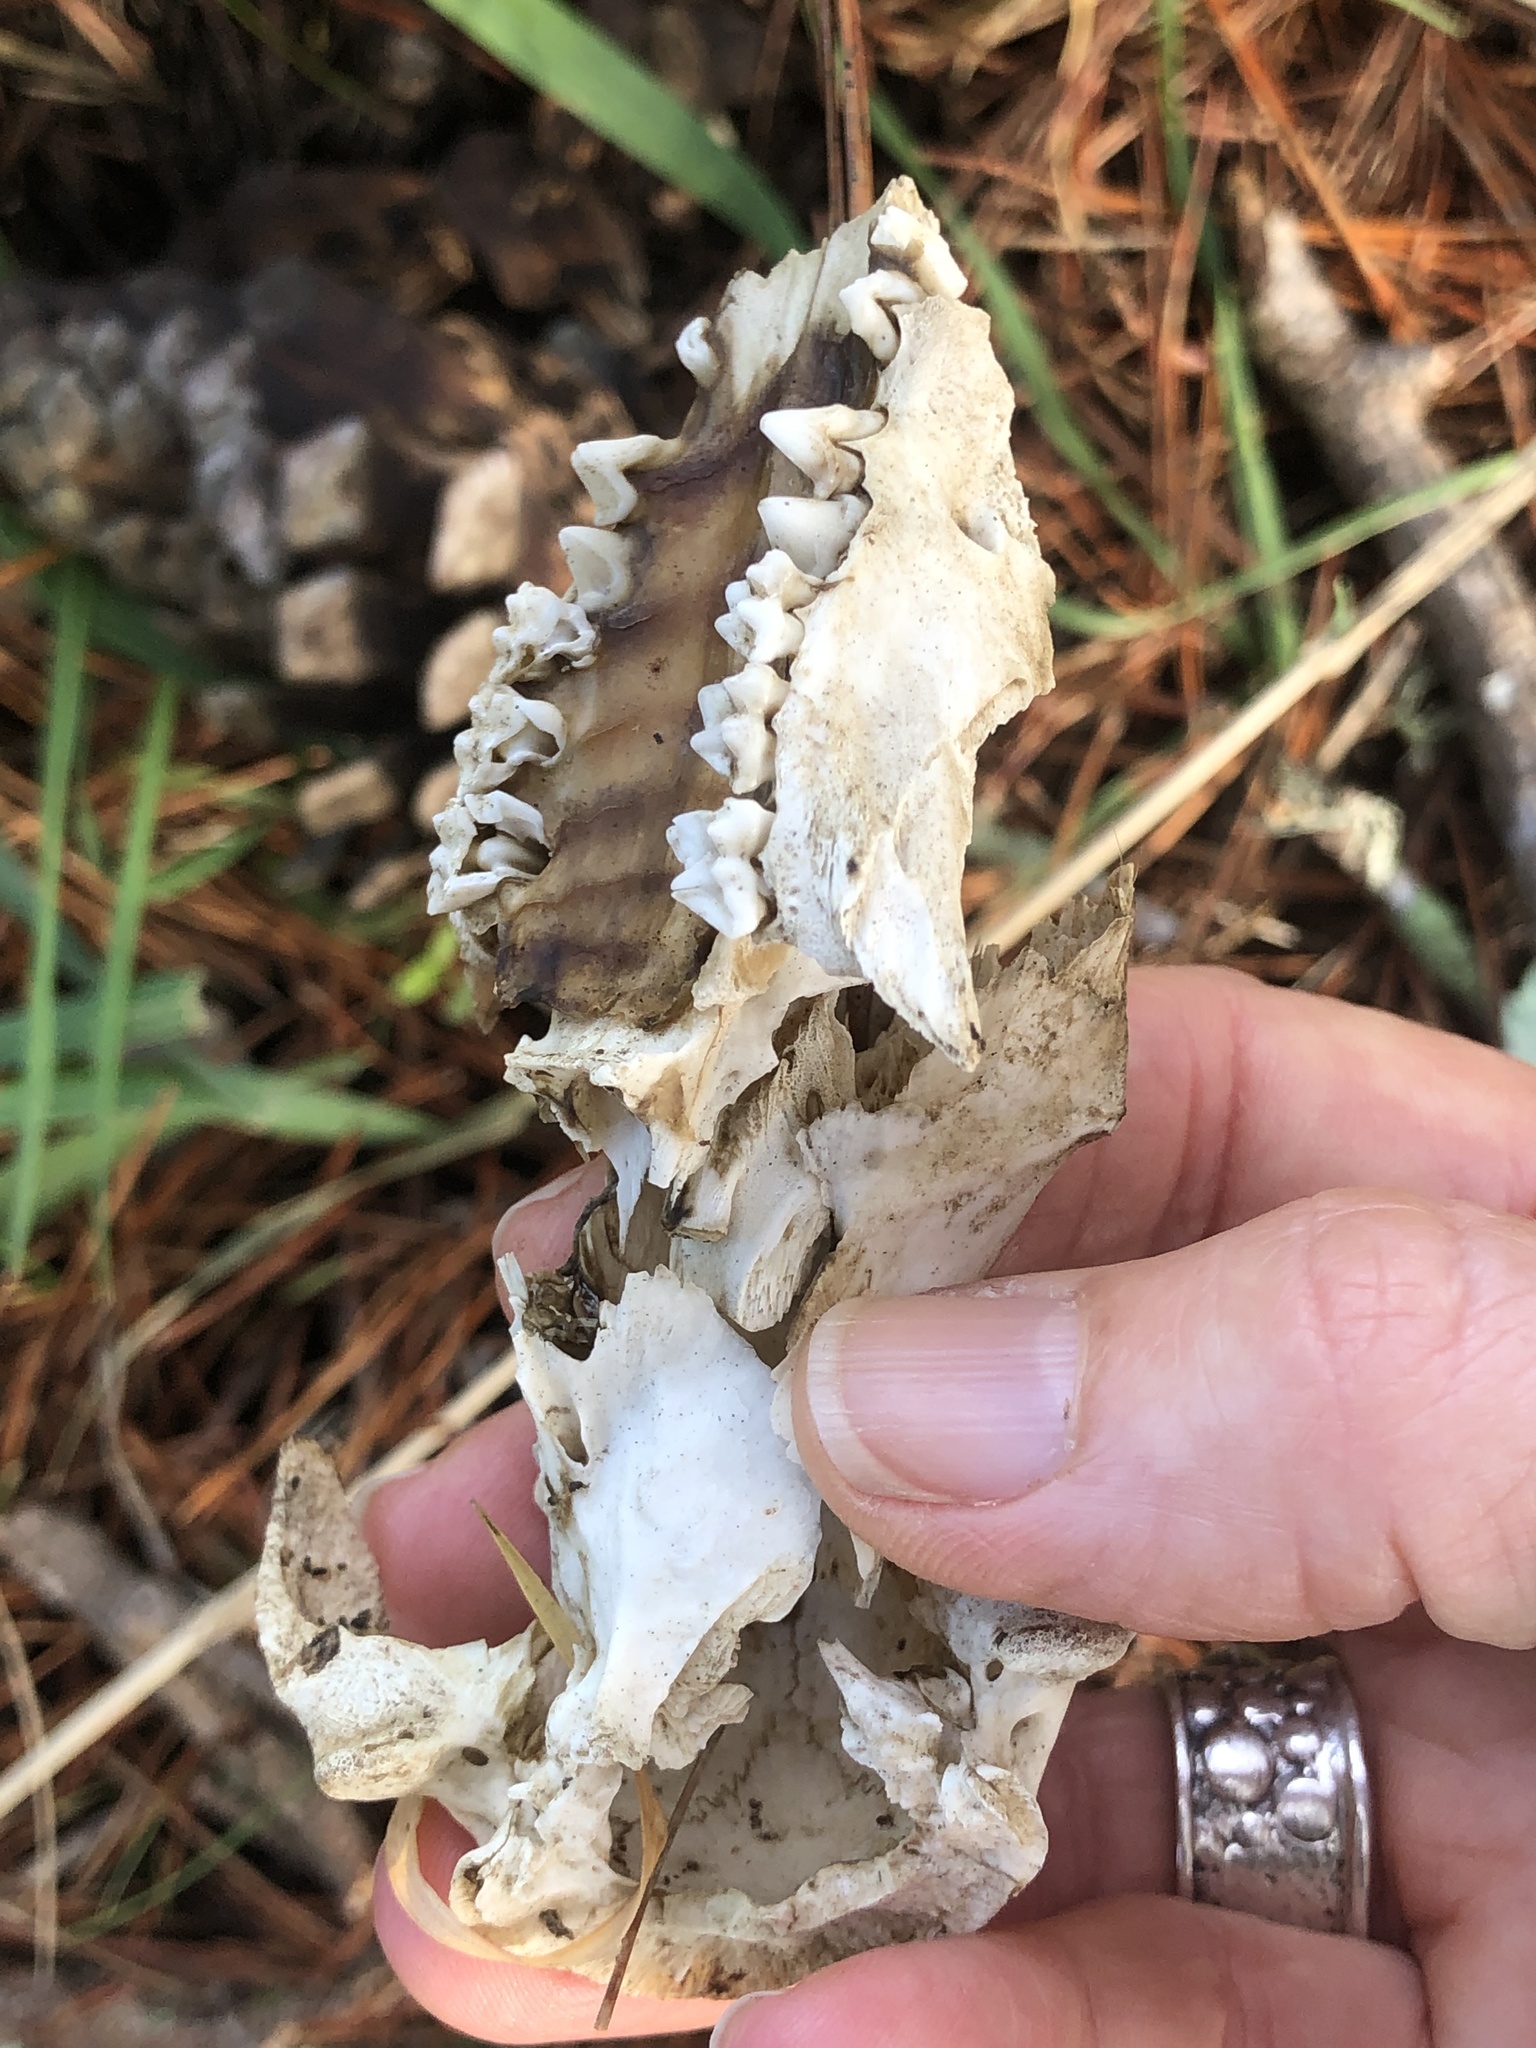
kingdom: Animalia
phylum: Chordata
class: Mammalia
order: Didelphimorphia
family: Didelphidae
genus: Didelphis
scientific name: Didelphis virginiana
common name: Virginia opossum
